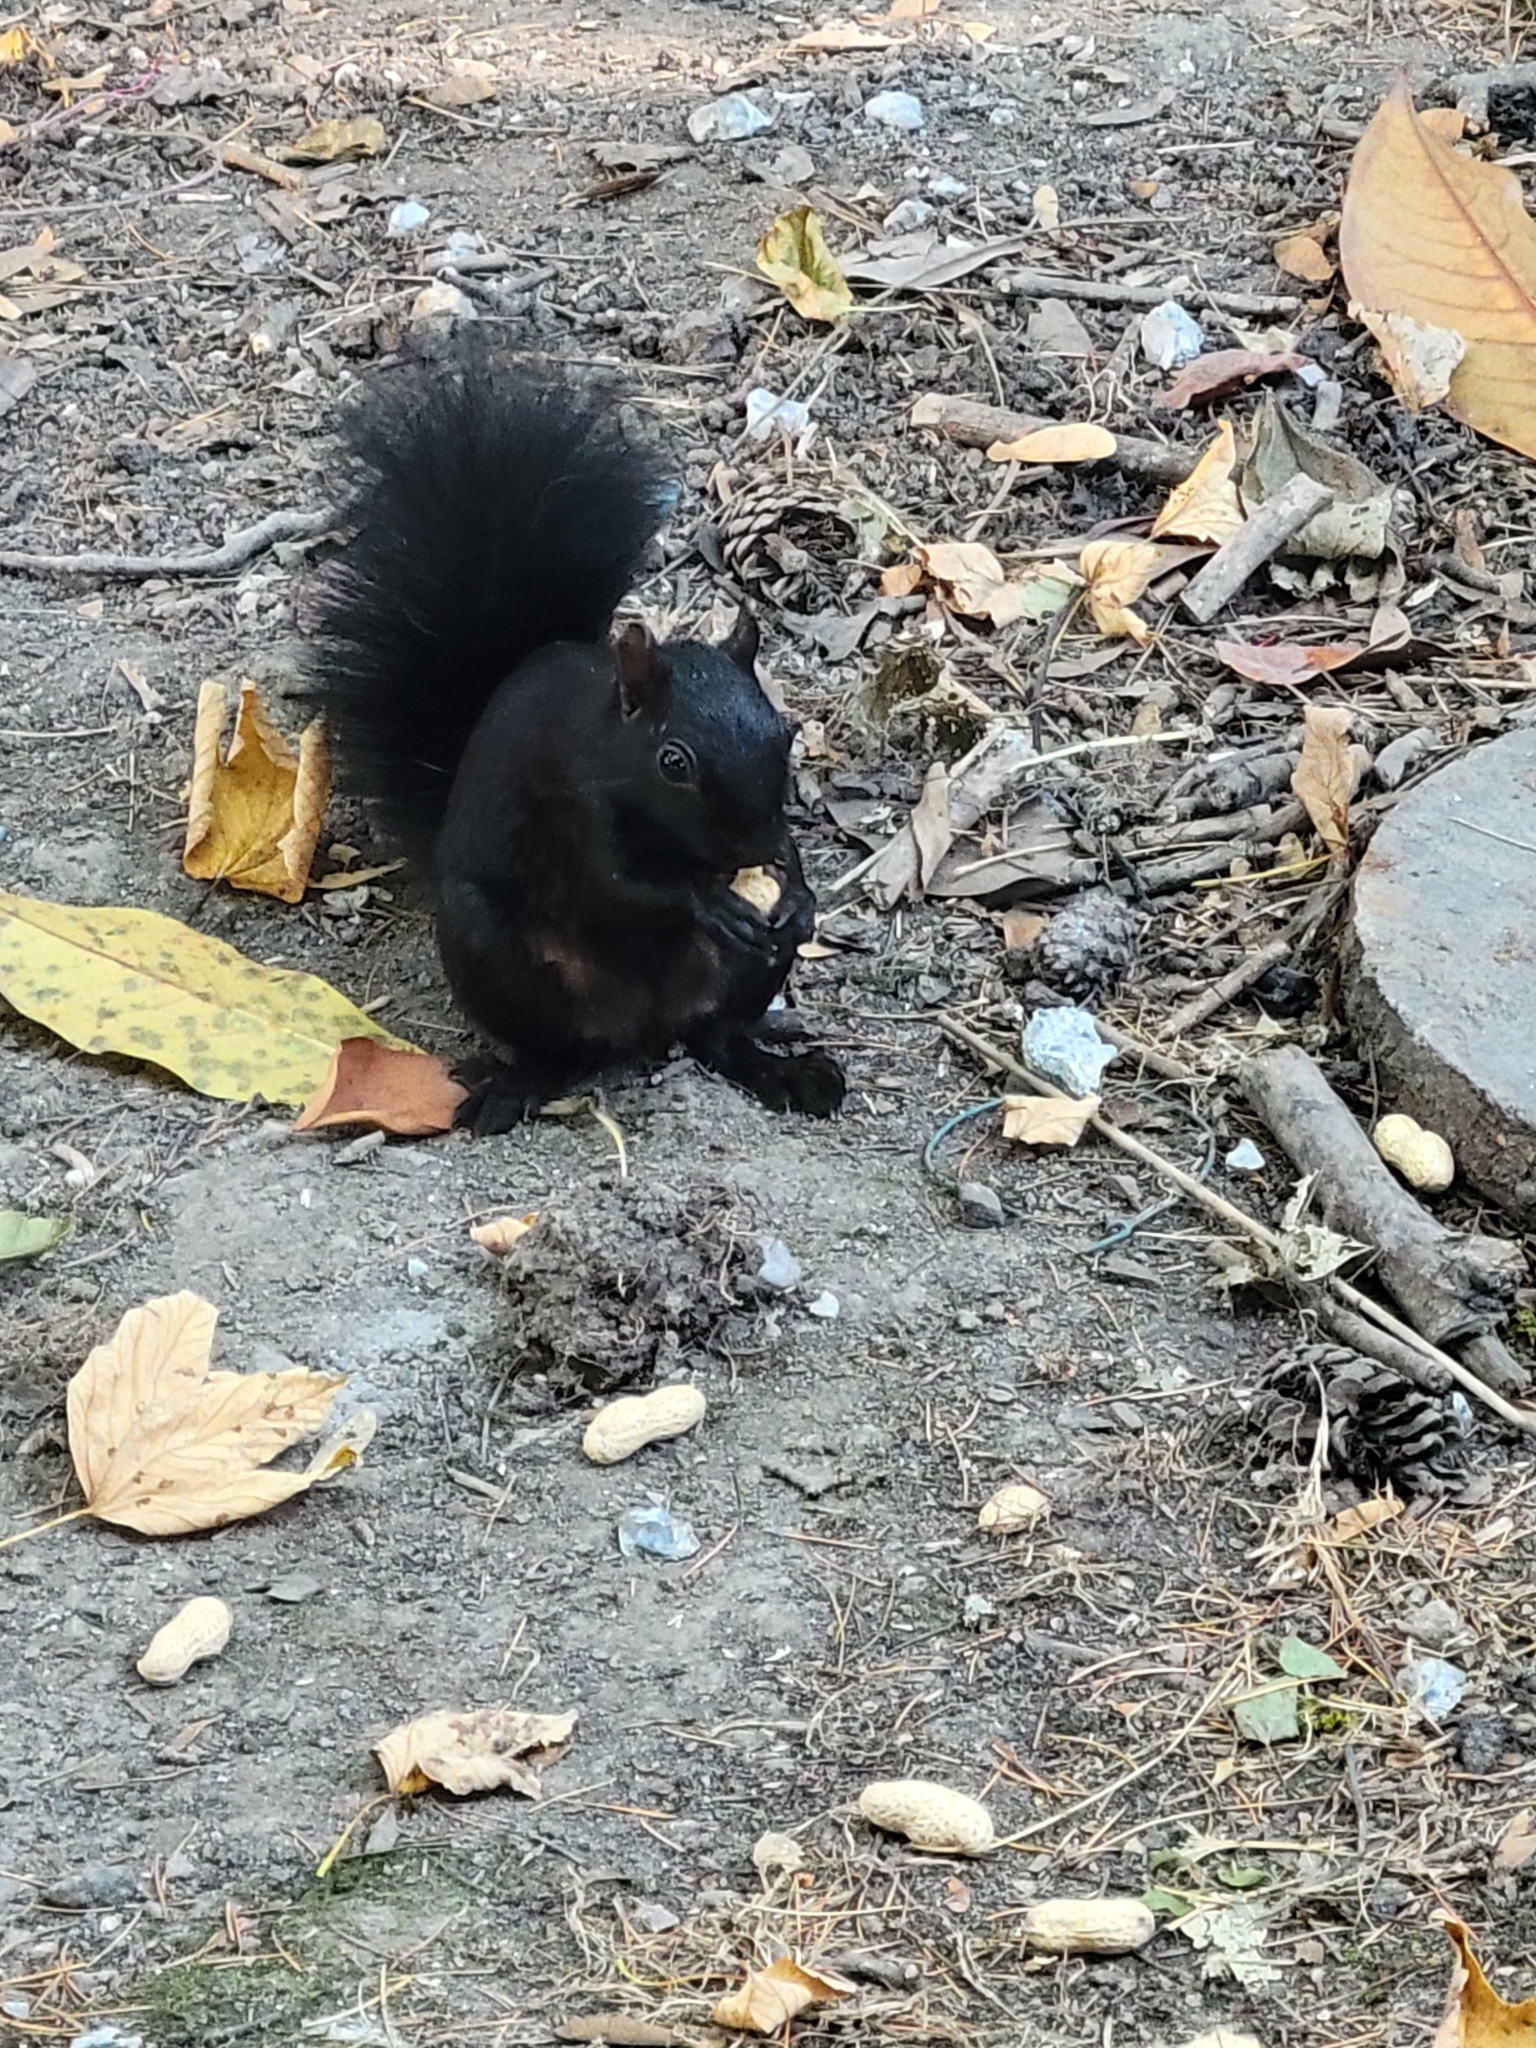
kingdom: Animalia
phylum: Chordata
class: Mammalia
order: Rodentia
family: Sciuridae
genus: Sciurus
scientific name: Sciurus carolinensis
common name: Eastern gray squirrel
